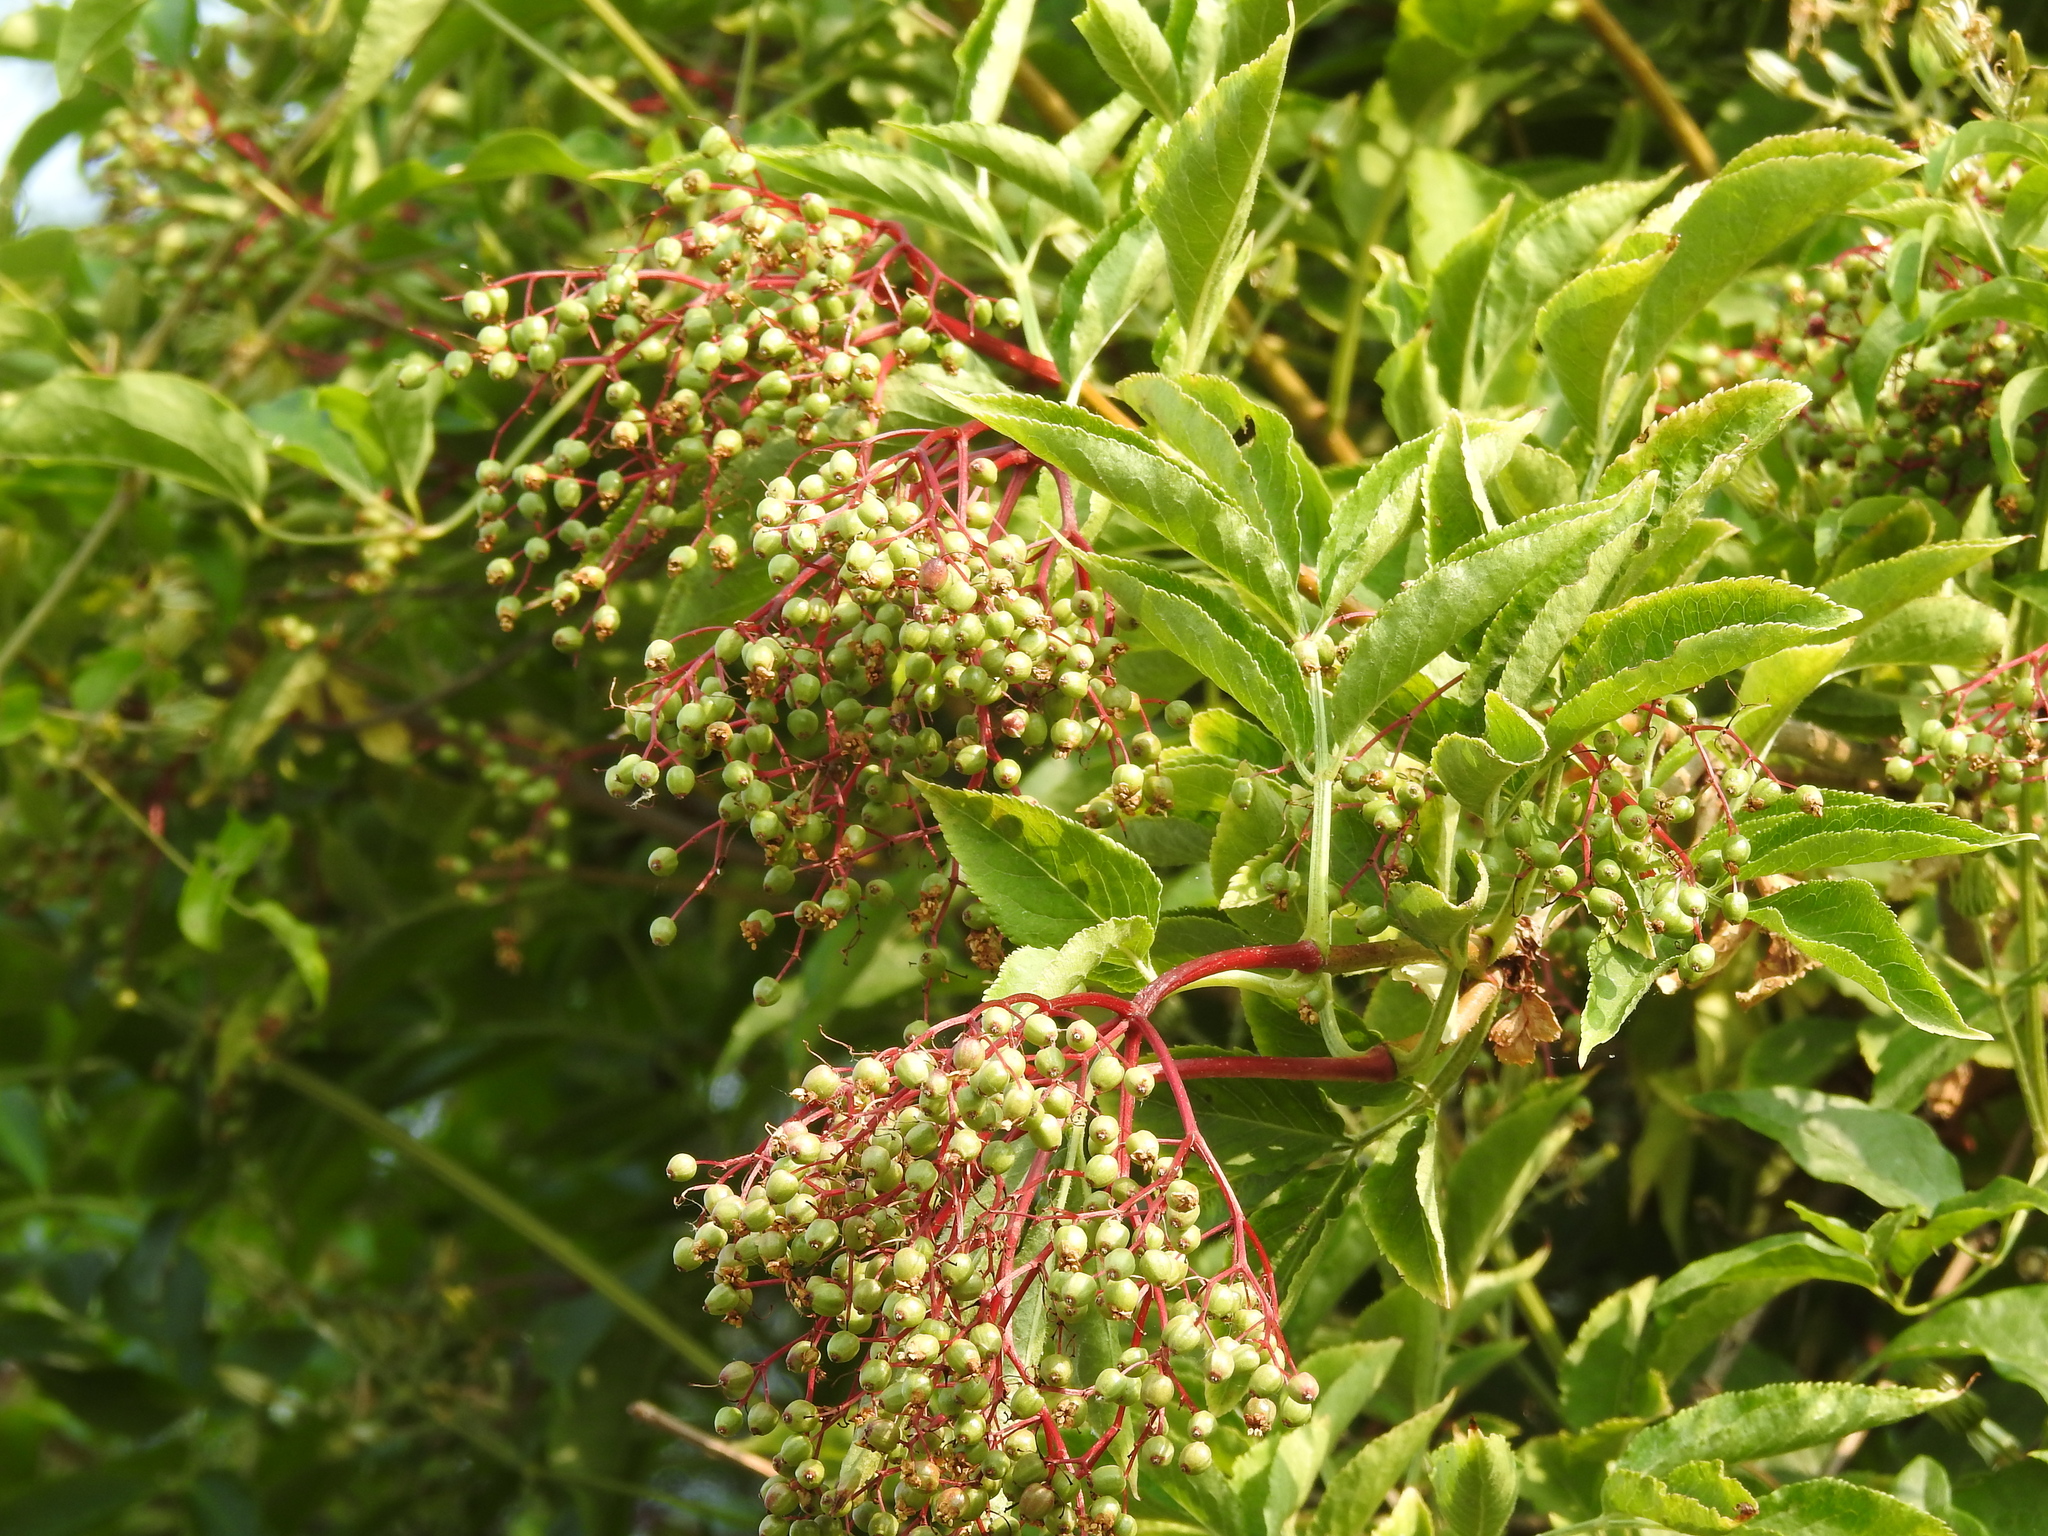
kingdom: Plantae
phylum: Tracheophyta
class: Magnoliopsida
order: Dipsacales
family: Viburnaceae
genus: Sambucus
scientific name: Sambucus nigra
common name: Elder
